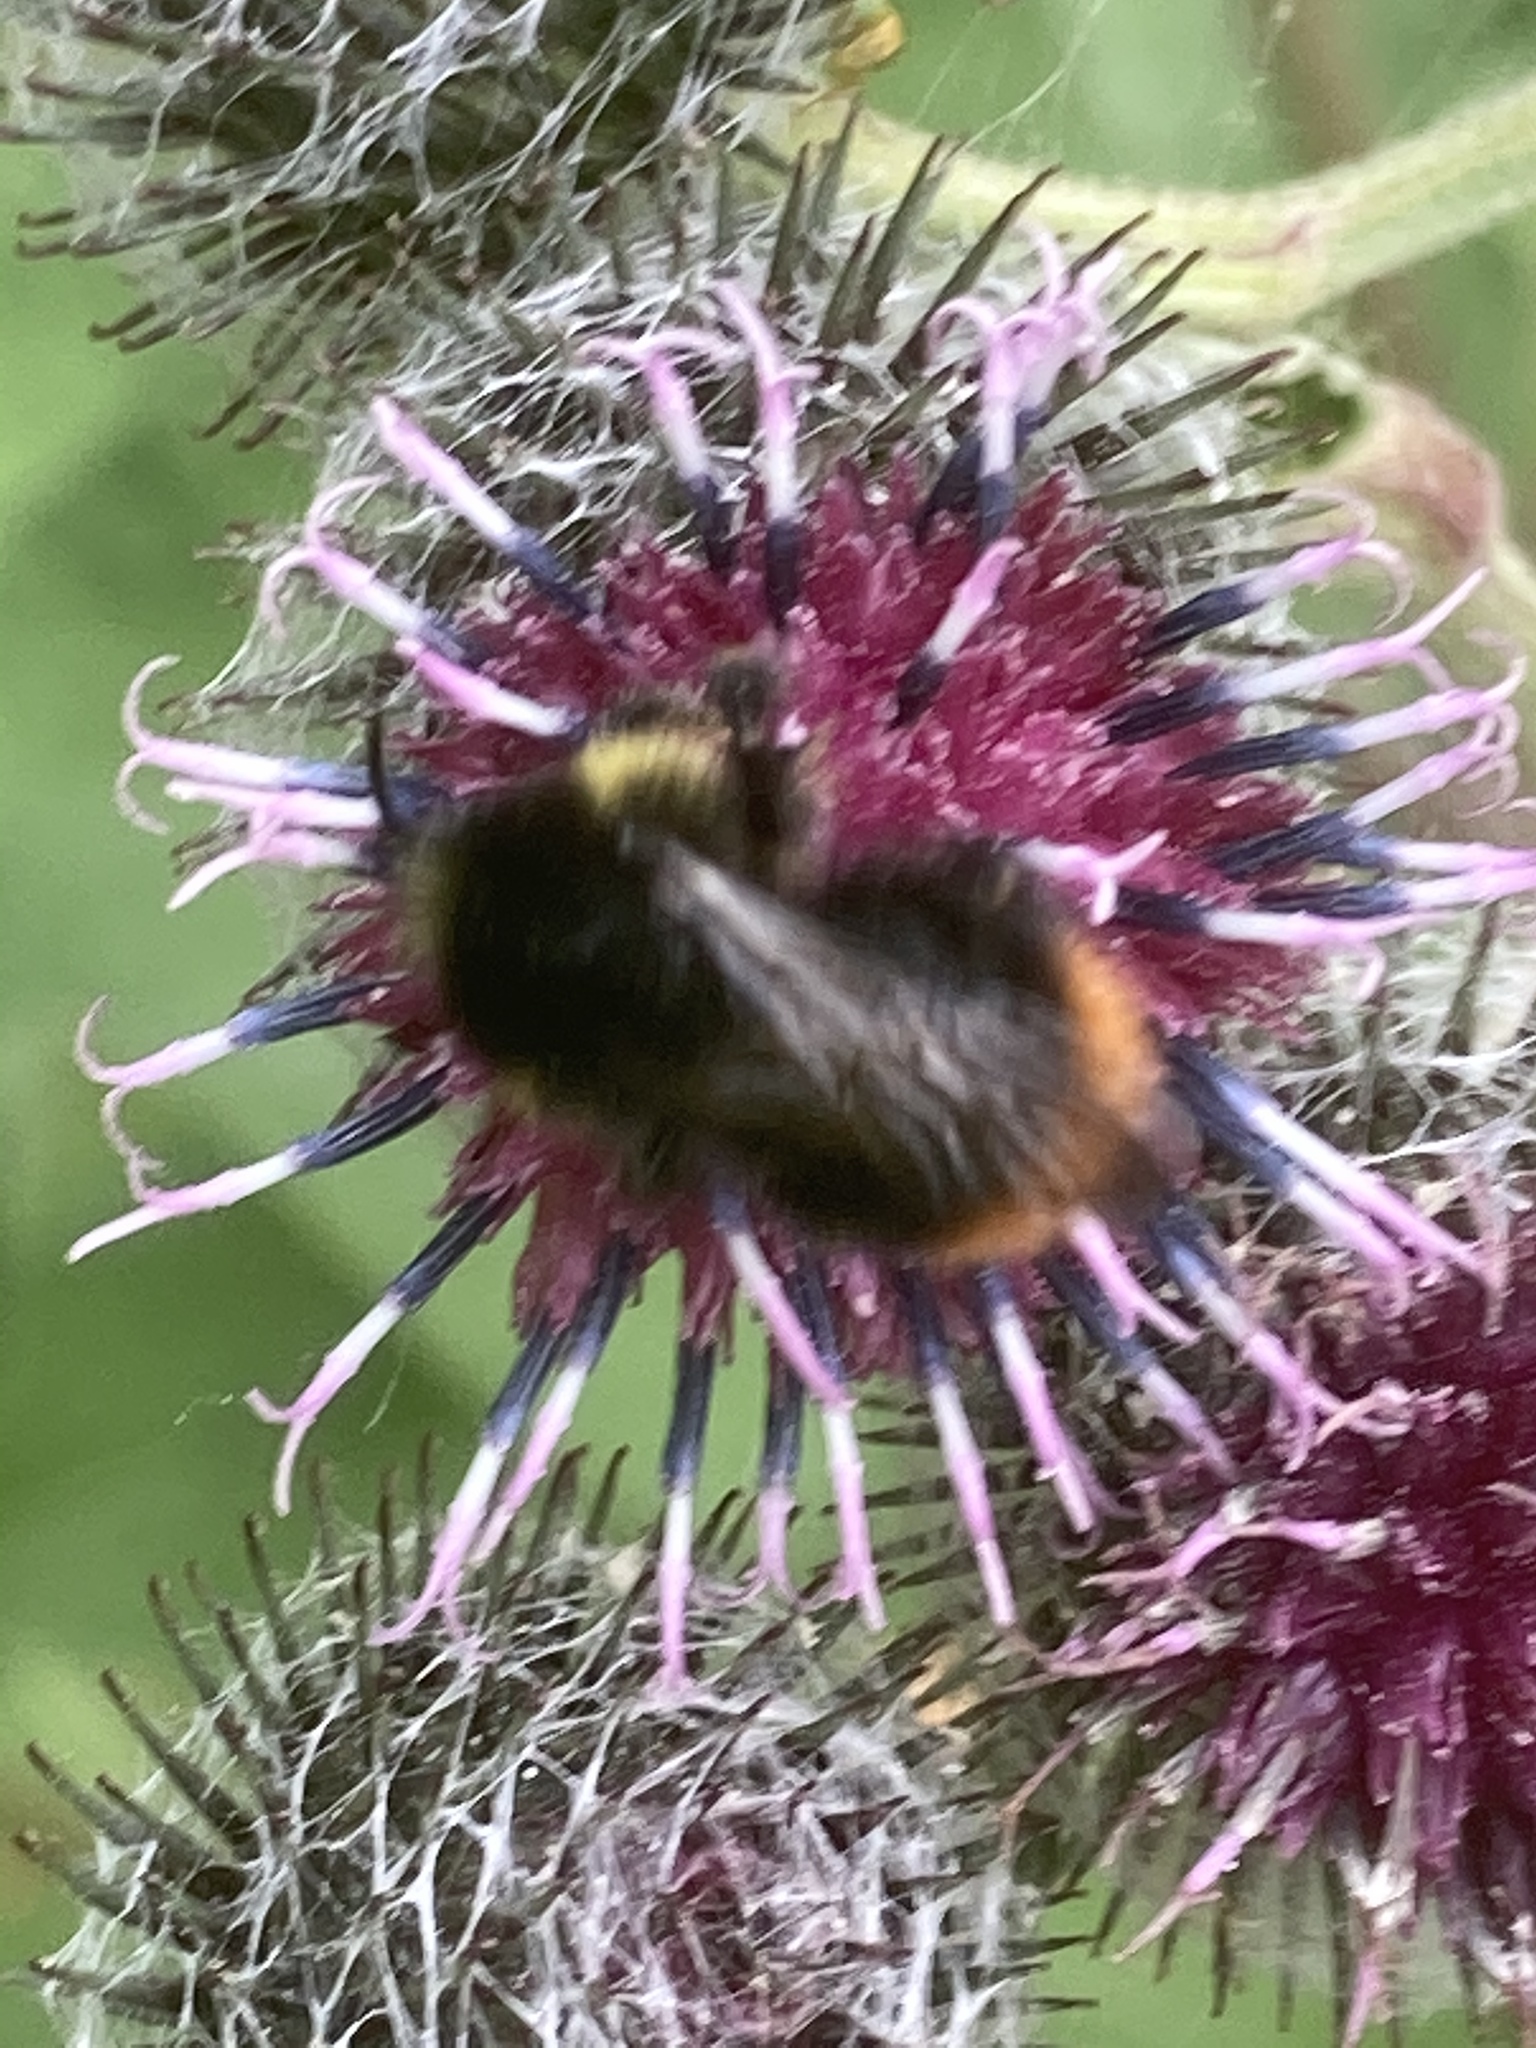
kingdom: Animalia
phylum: Arthropoda
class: Insecta
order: Hymenoptera
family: Apidae
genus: Bombus
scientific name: Bombus soroeensis
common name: Broken-belted humble-bee
